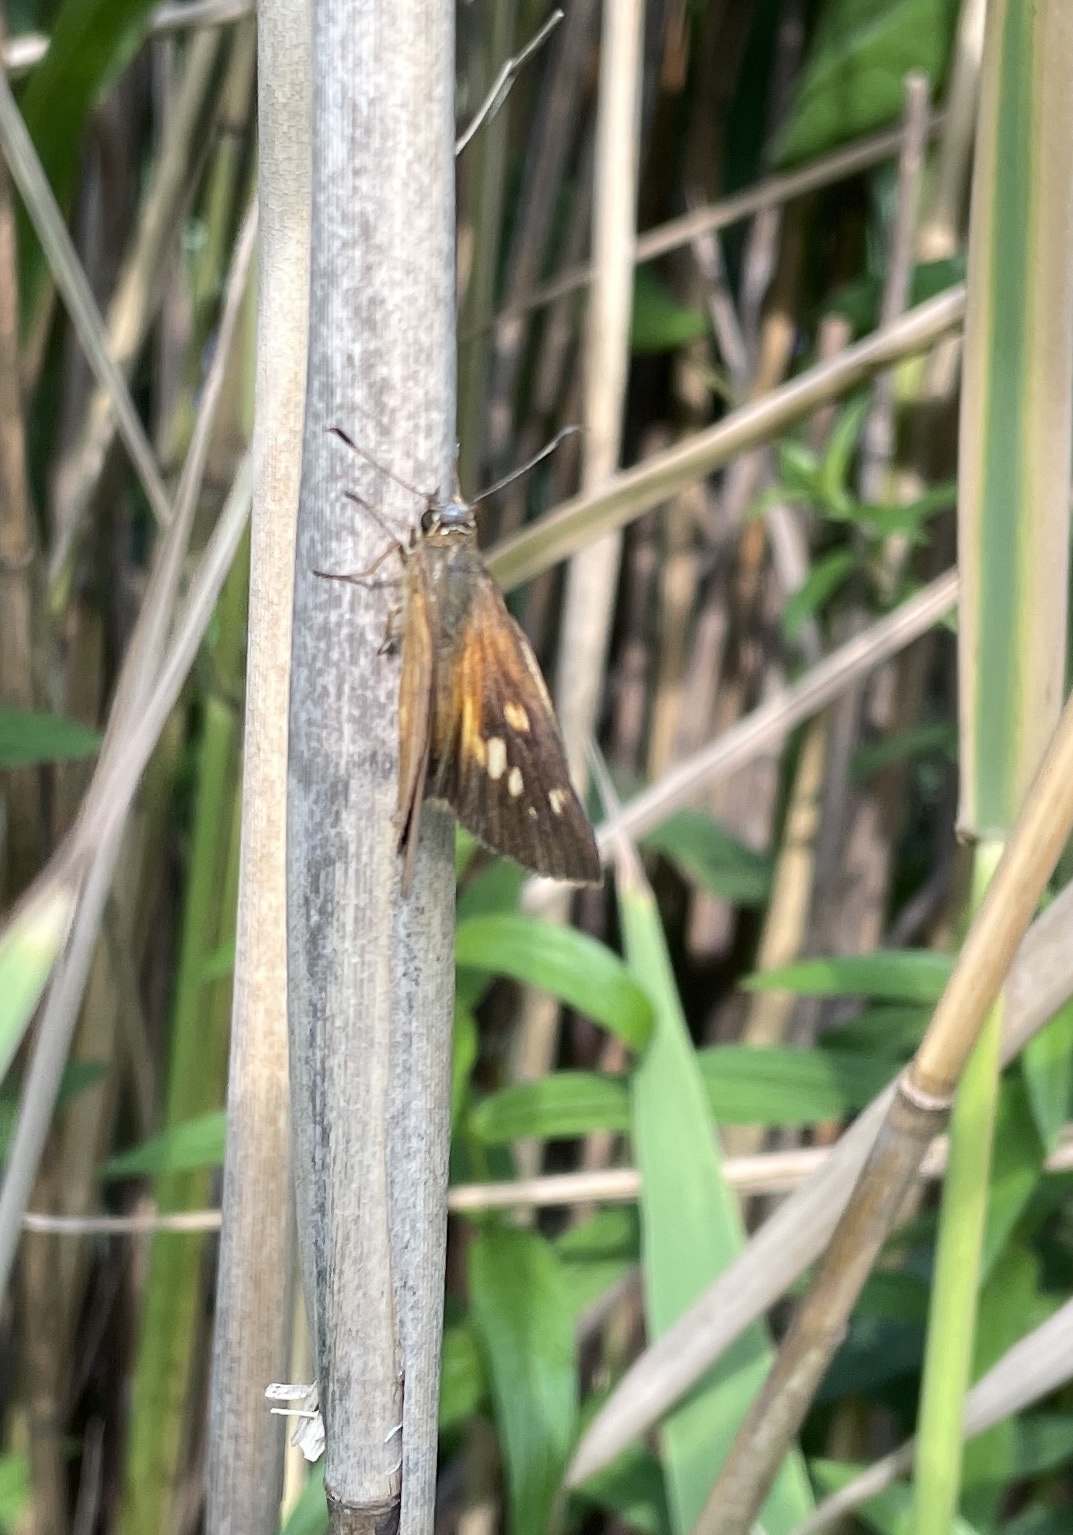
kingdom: Animalia
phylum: Arthropoda
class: Insecta
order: Lepidoptera
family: Hesperiidae
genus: Poanes
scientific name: Poanes viator
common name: Broad-winged skipper
